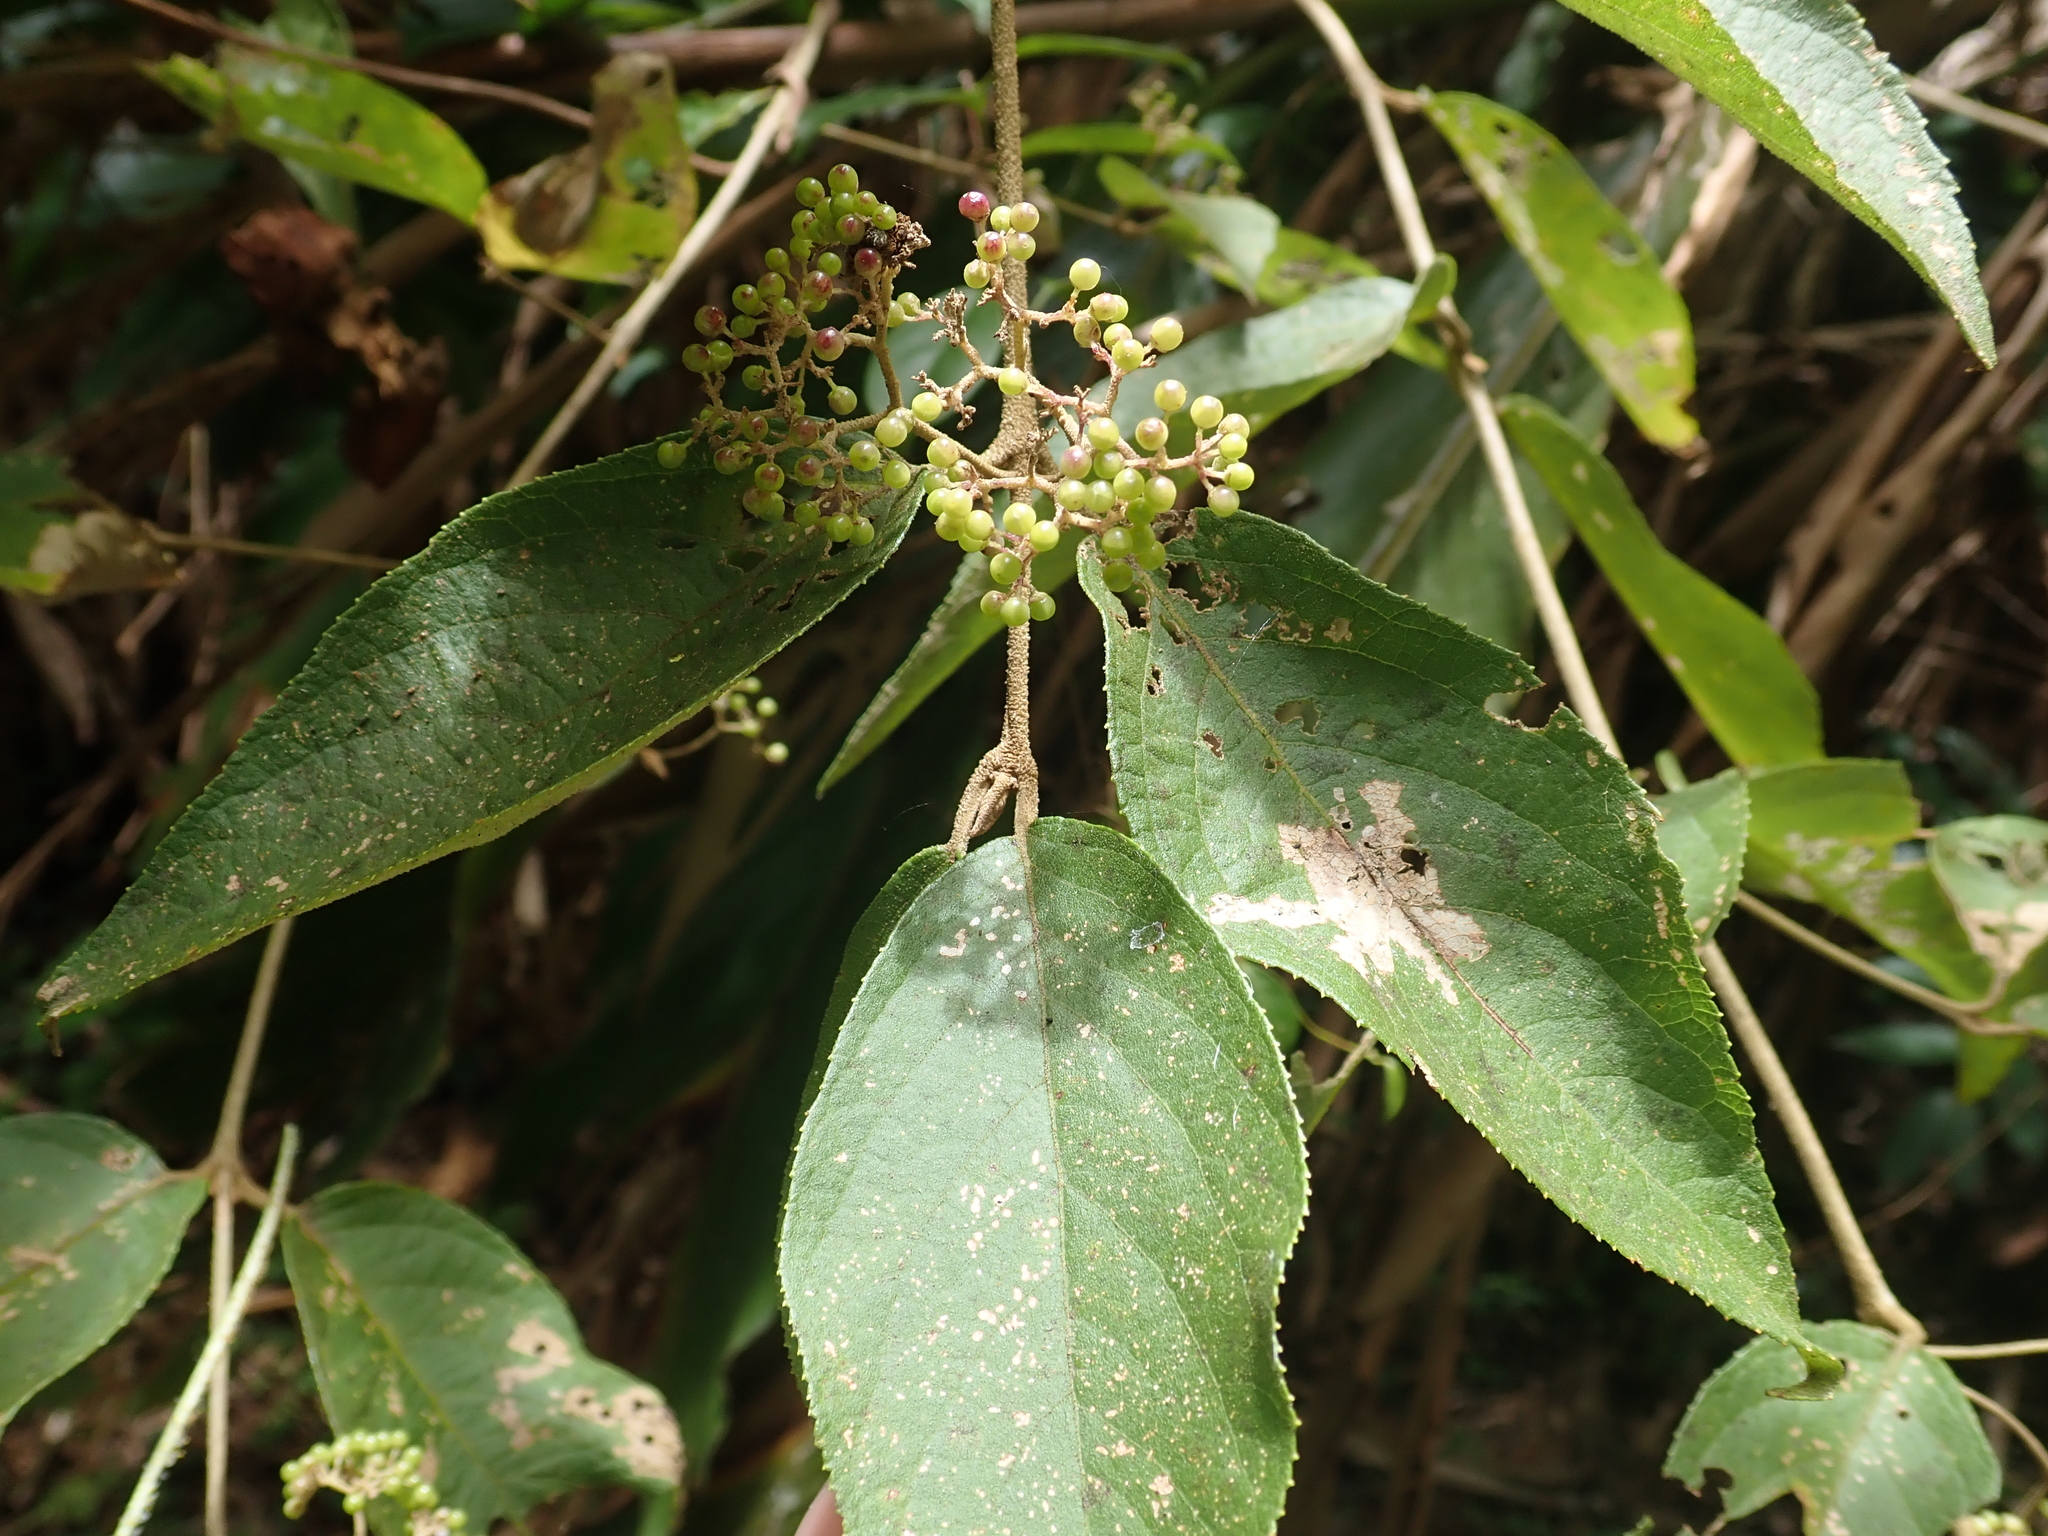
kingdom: Plantae
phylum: Tracheophyta
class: Magnoliopsida
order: Lamiales
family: Lamiaceae
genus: Callicarpa
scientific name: Callicarpa pedunculata
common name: Velvetleaf
